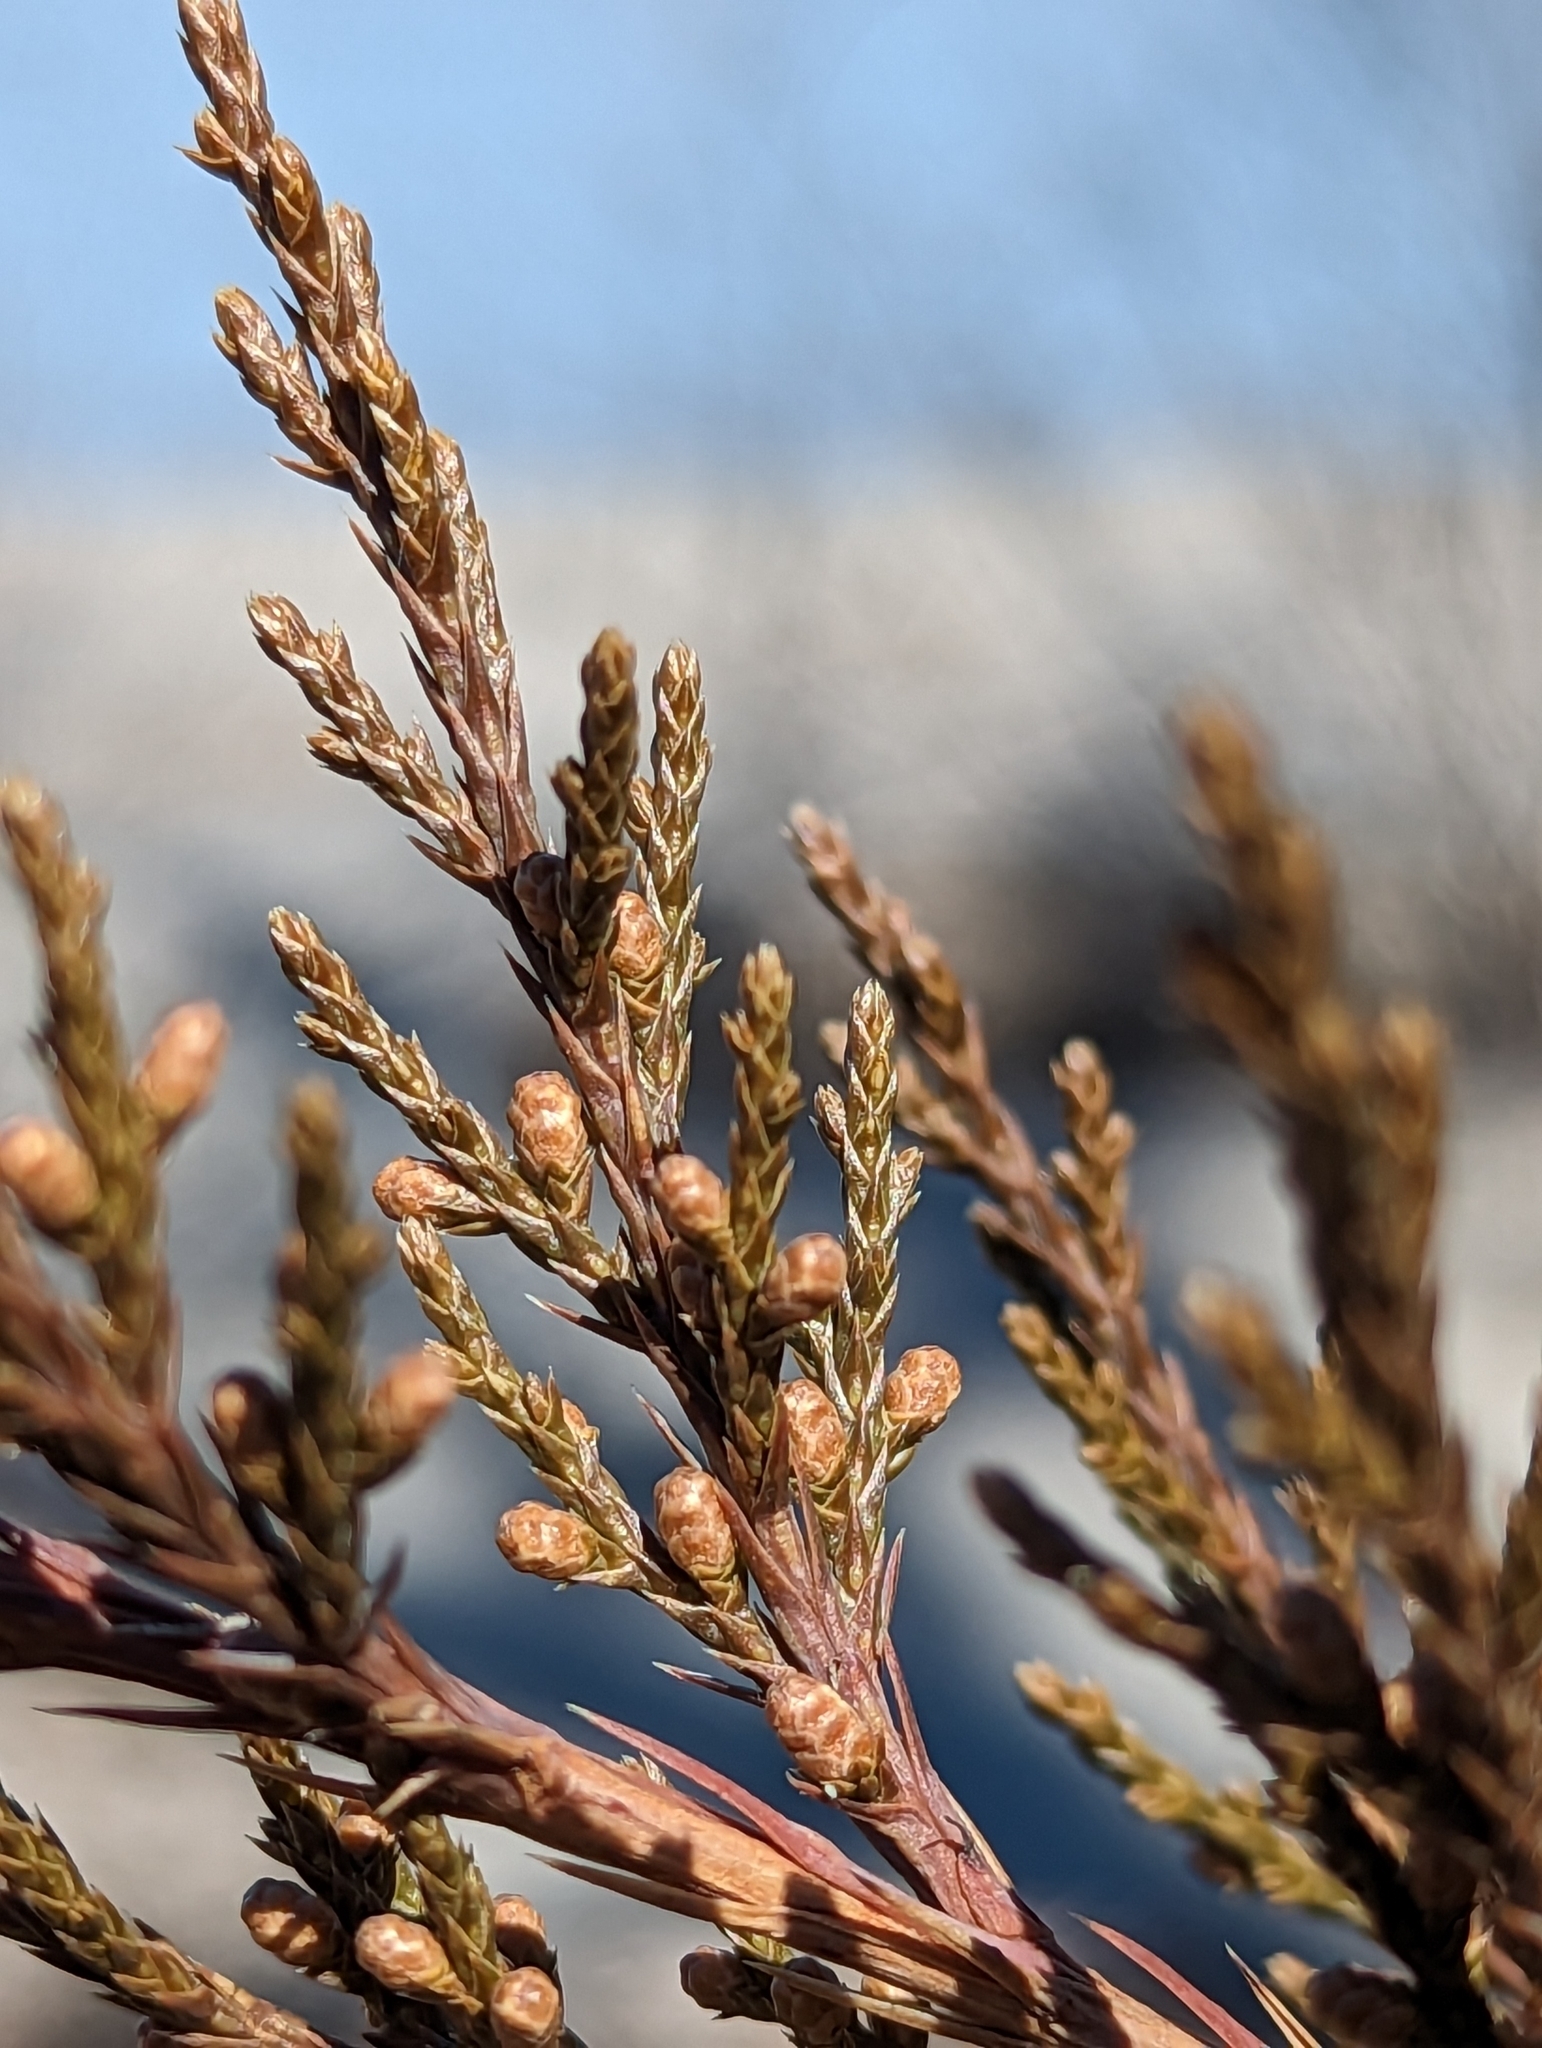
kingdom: Plantae
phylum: Tracheophyta
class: Pinopsida
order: Pinales
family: Cupressaceae
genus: Juniperus
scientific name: Juniperus virginiana
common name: Red juniper
